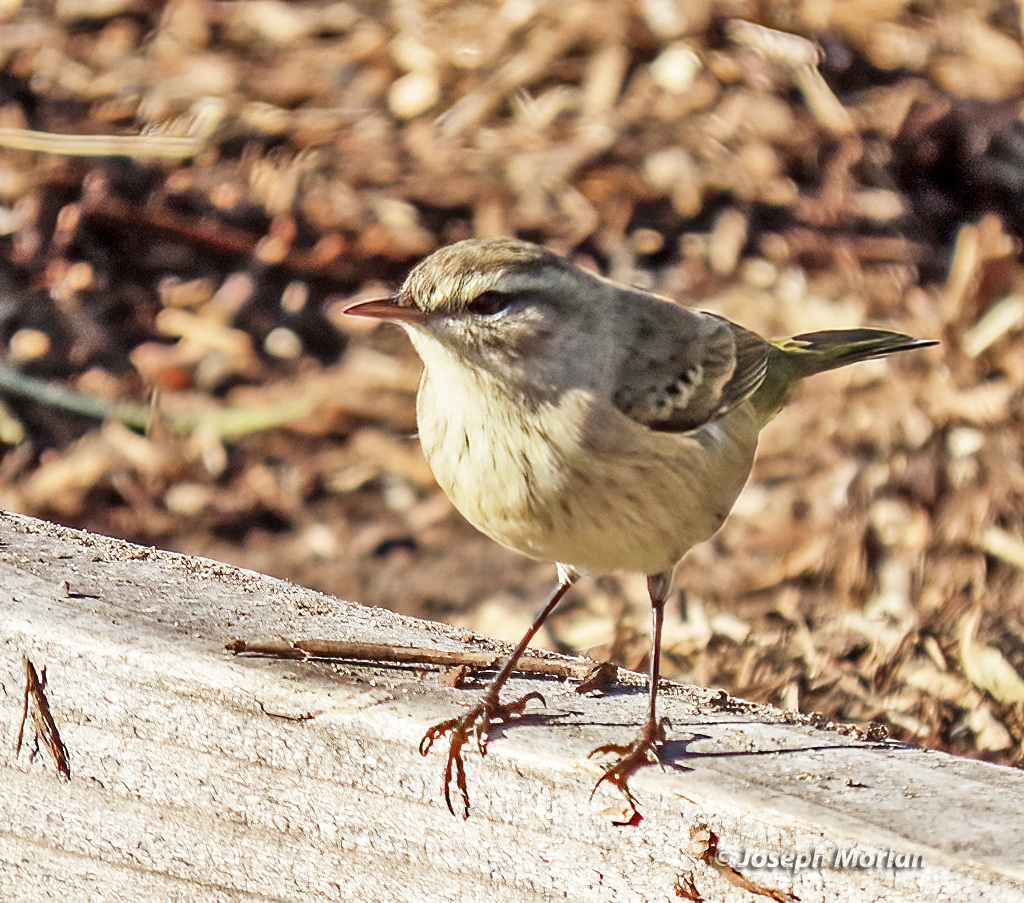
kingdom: Animalia
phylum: Chordata
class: Aves
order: Passeriformes
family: Parulidae
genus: Setophaga
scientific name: Setophaga palmarum
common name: Palm warbler
